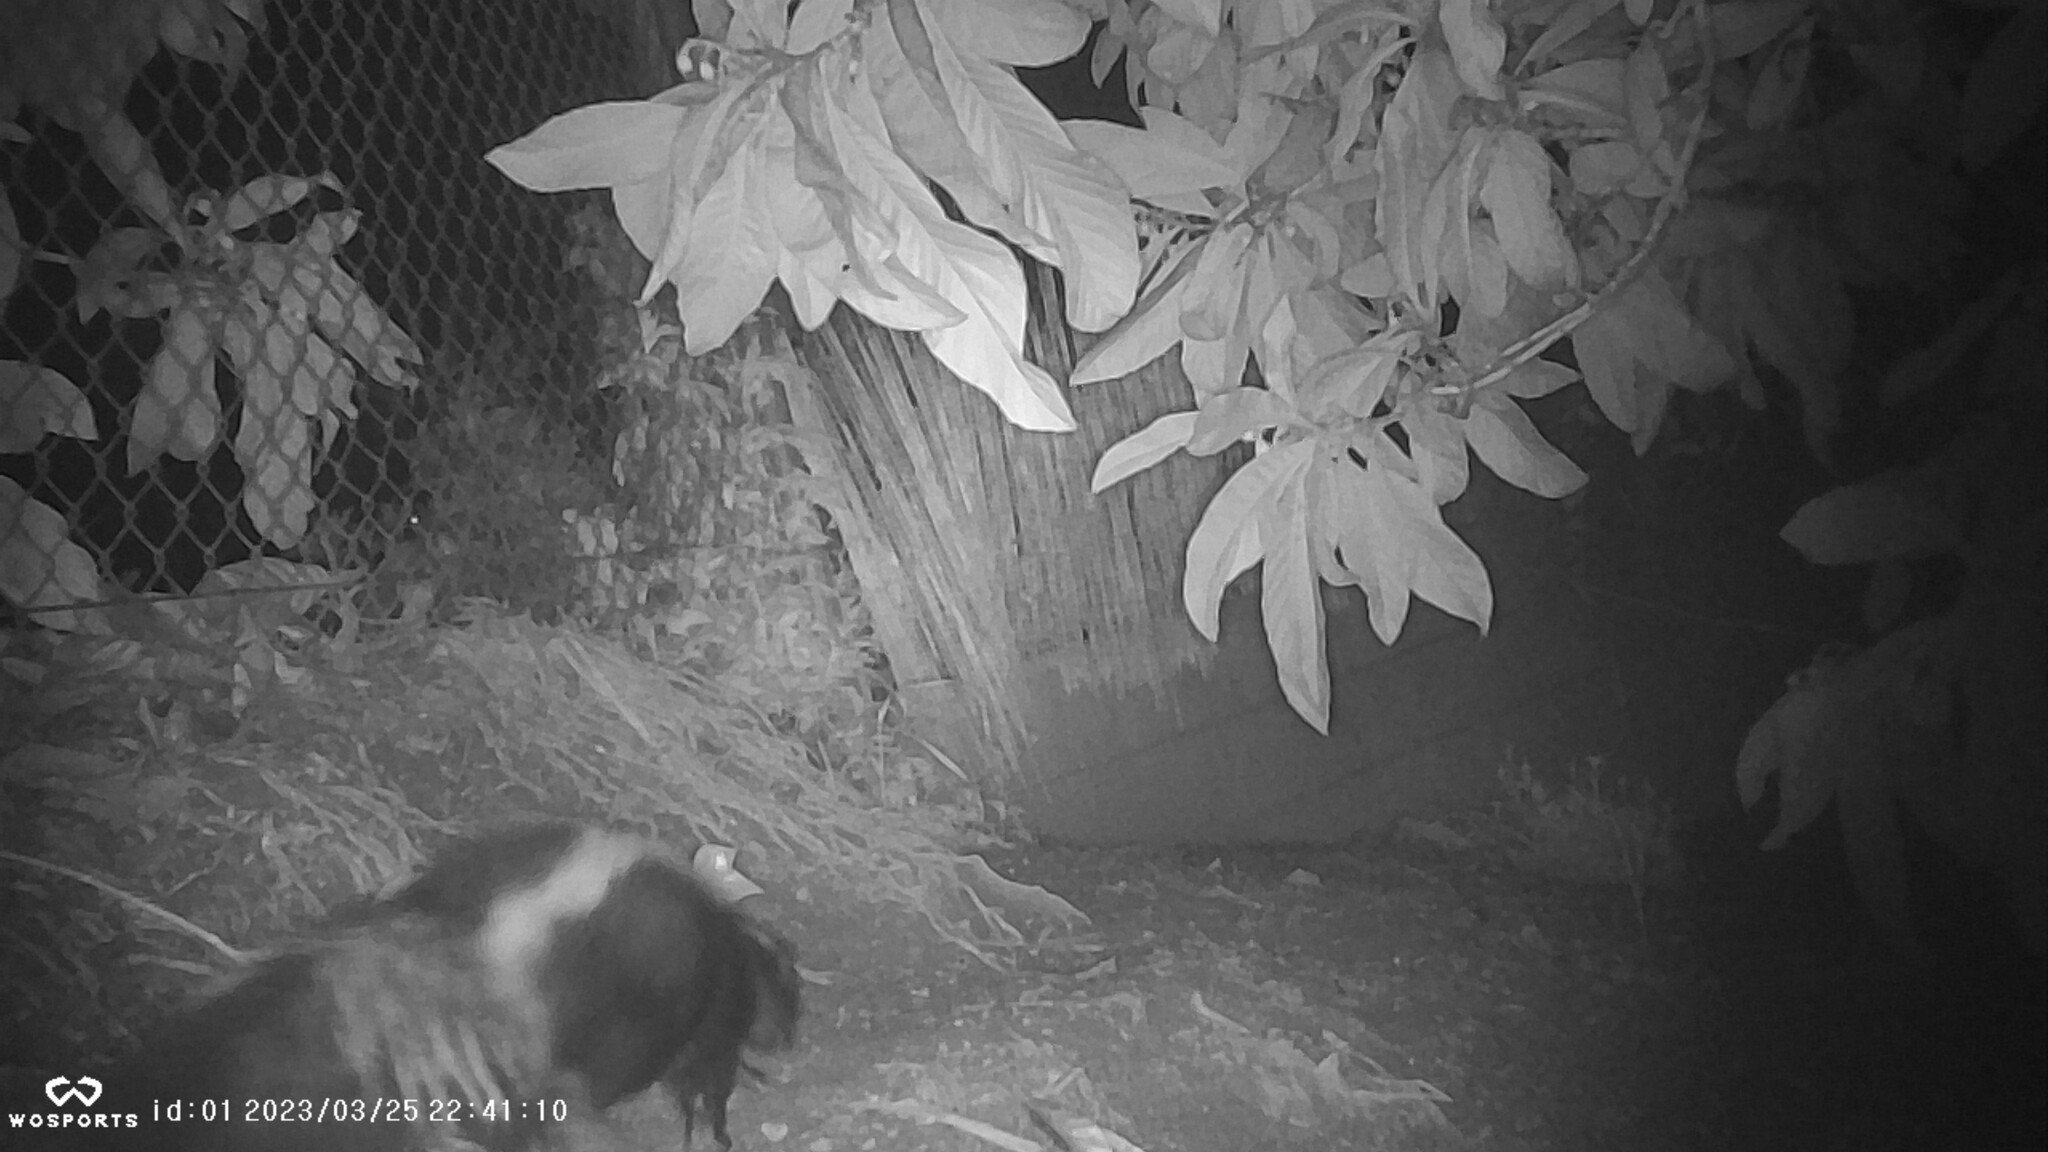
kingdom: Animalia
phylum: Chordata
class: Mammalia
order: Carnivora
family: Mephitidae
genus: Mephitis
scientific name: Mephitis mephitis
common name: Striped skunk
